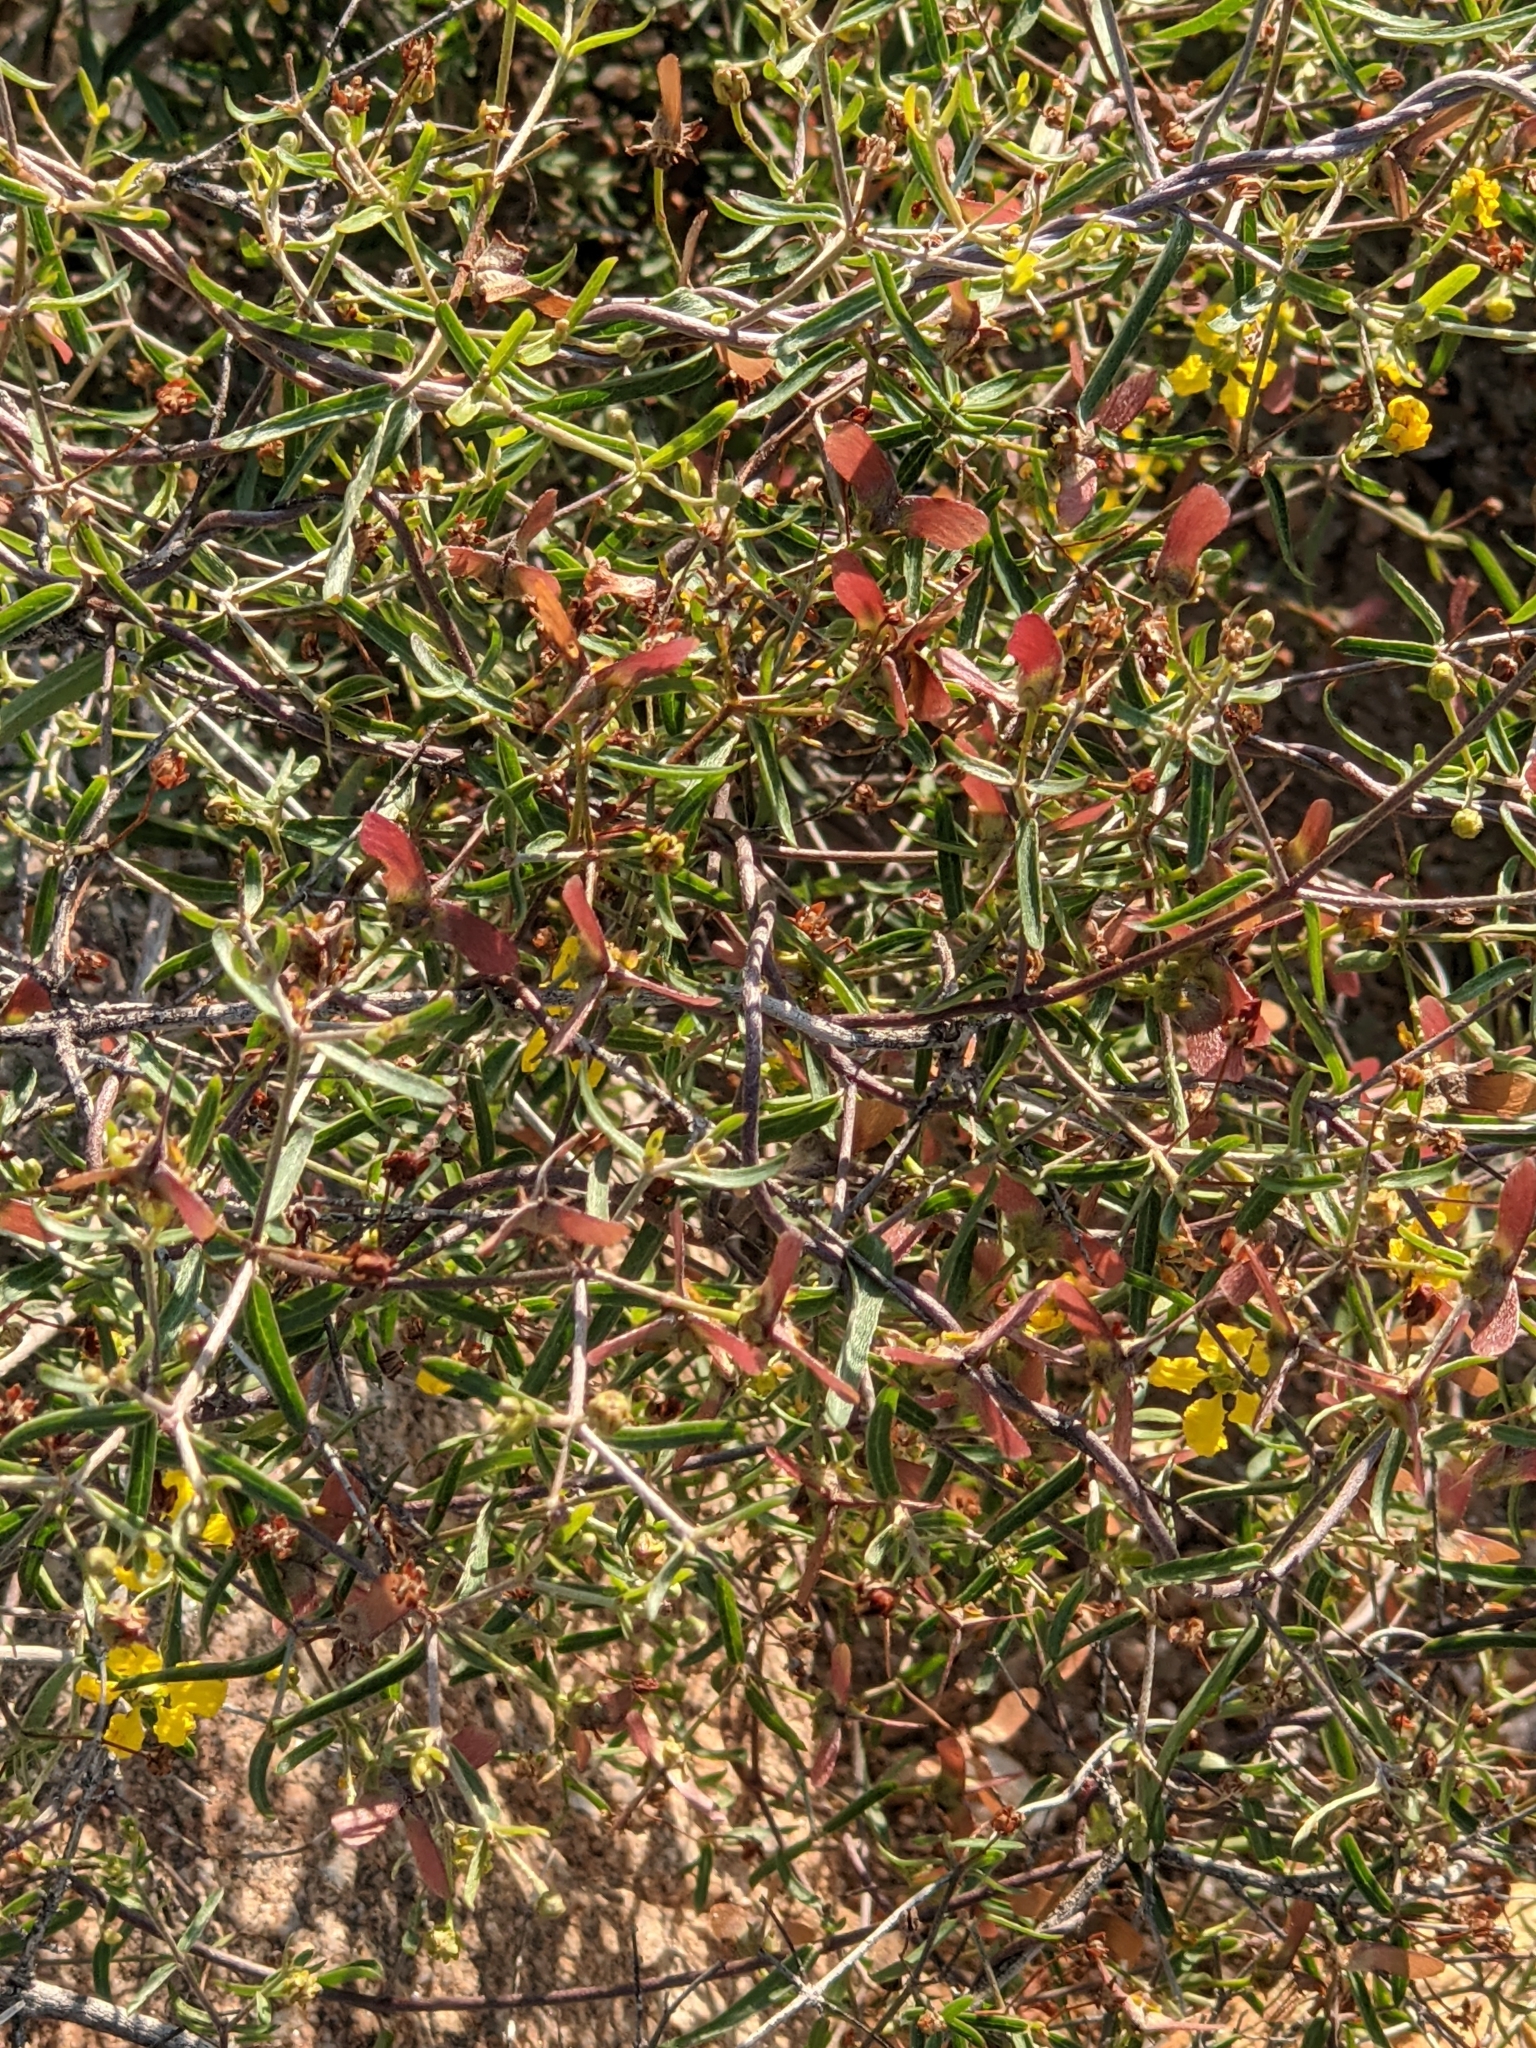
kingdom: Plantae
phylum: Tracheophyta
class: Magnoliopsida
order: Malpighiales
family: Malpighiaceae
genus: Cottsia
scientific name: Cottsia gracilis
